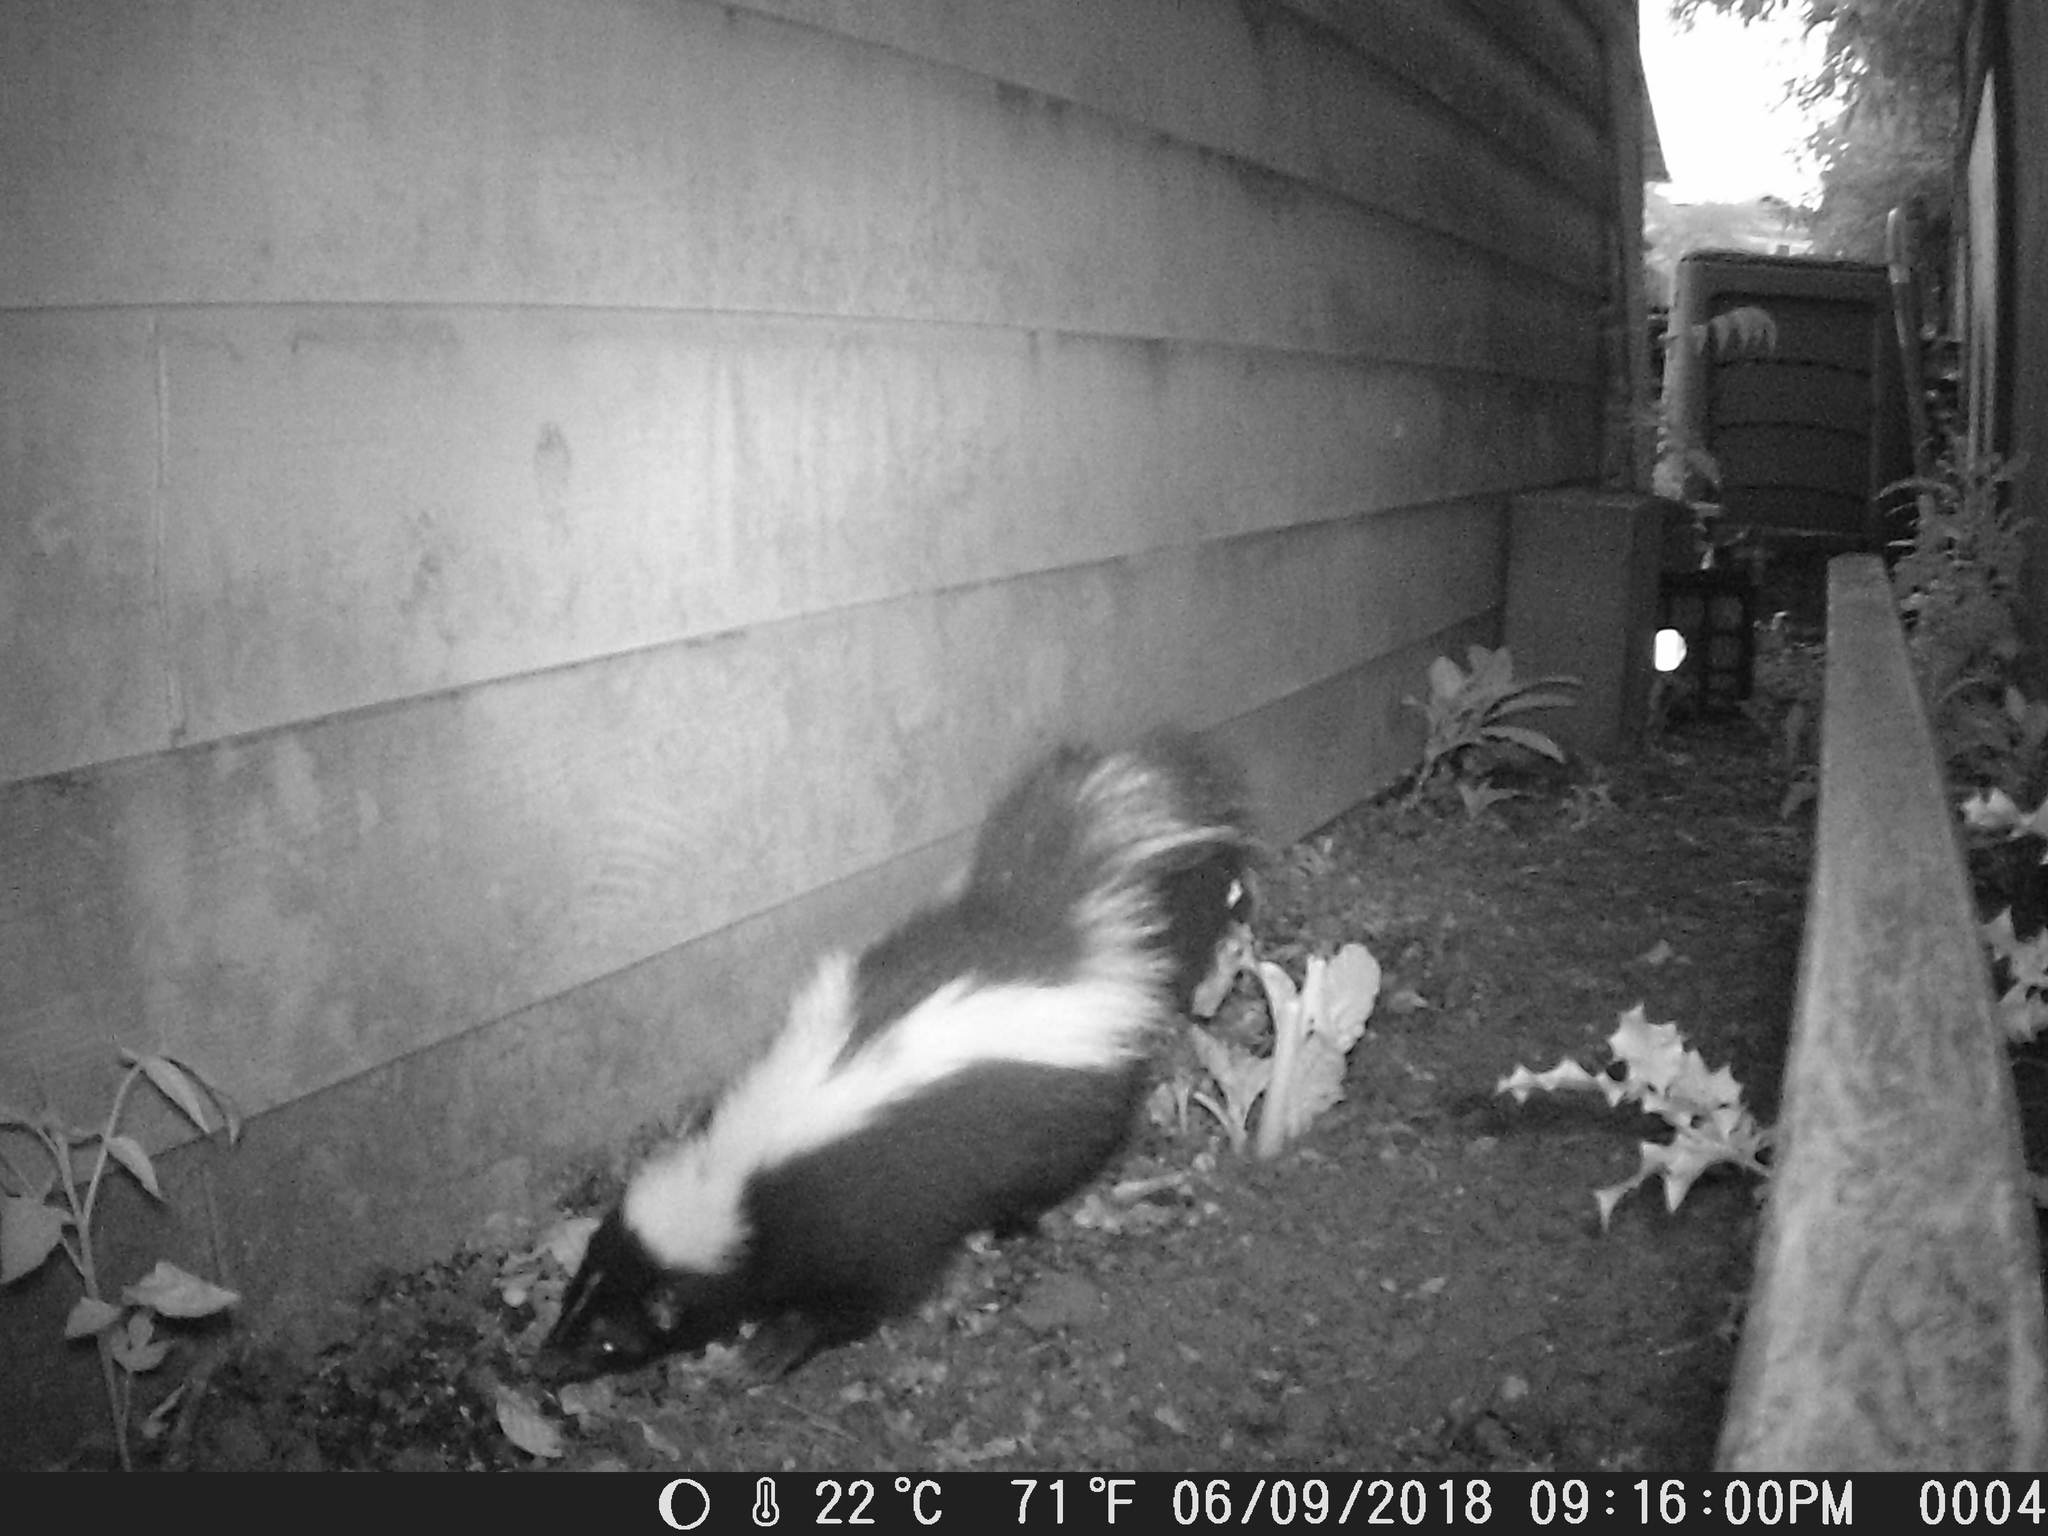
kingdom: Animalia
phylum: Chordata
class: Mammalia
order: Carnivora
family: Mephitidae
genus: Mephitis
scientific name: Mephitis mephitis
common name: Striped skunk
